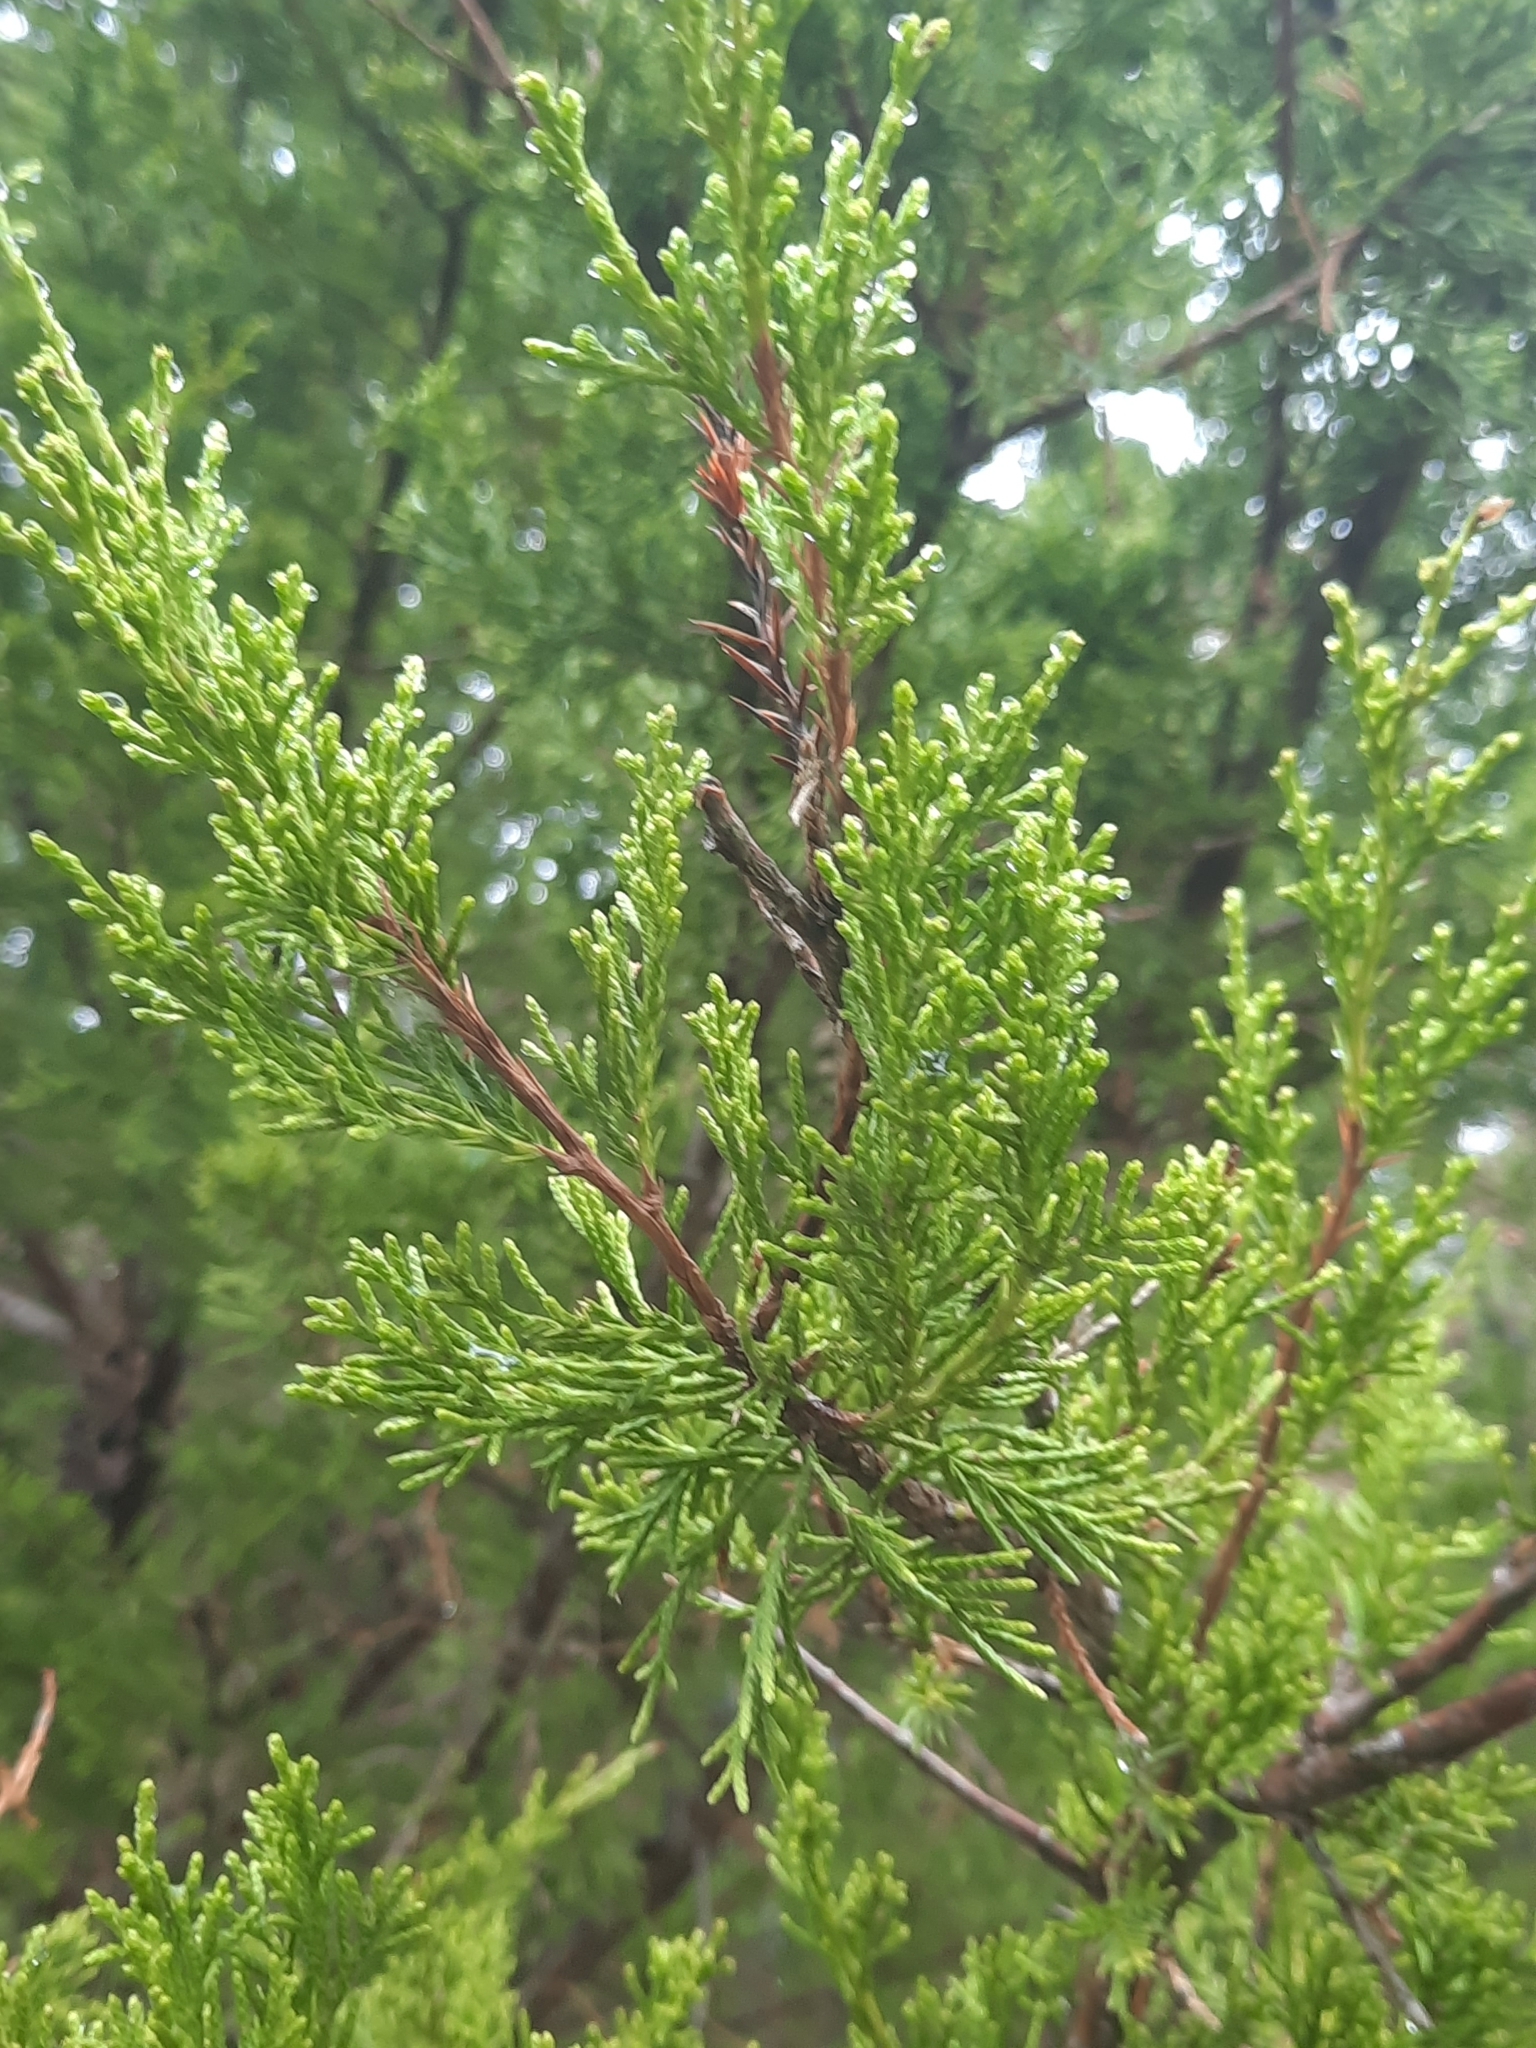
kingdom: Plantae
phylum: Tracheophyta
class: Pinopsida
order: Pinales
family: Cupressaceae
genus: Juniperus
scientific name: Juniperus virginiana
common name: Red juniper
